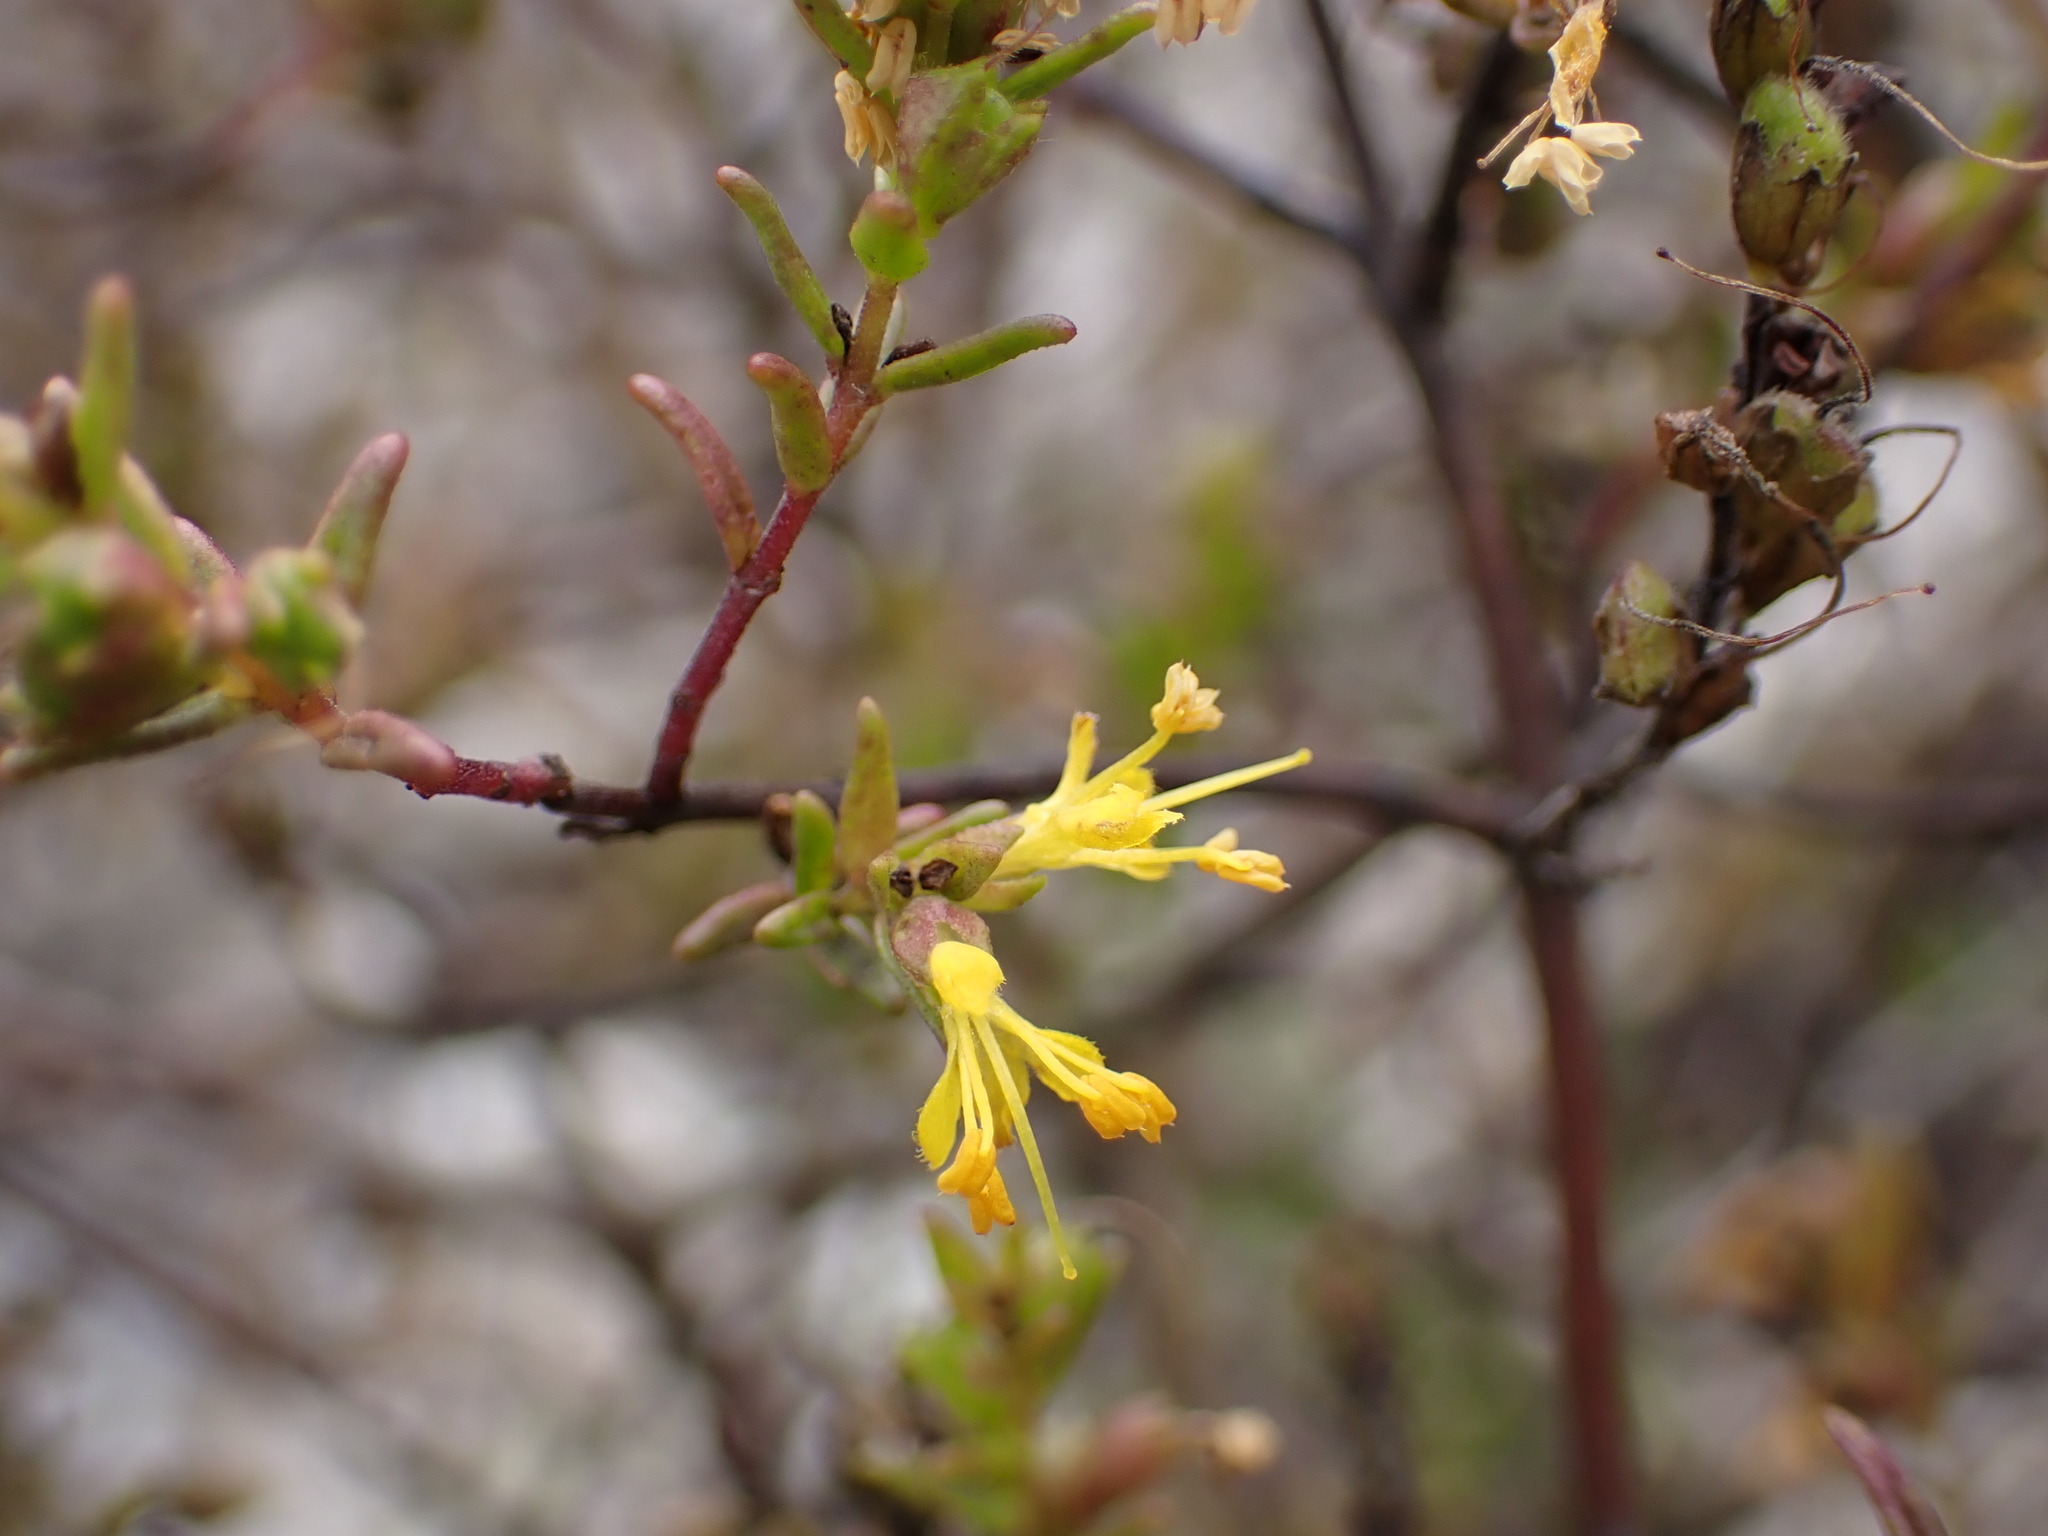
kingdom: Plantae
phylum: Tracheophyta
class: Magnoliopsida
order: Lamiales
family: Orobanchaceae
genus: Odontites
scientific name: Odontites luteus
